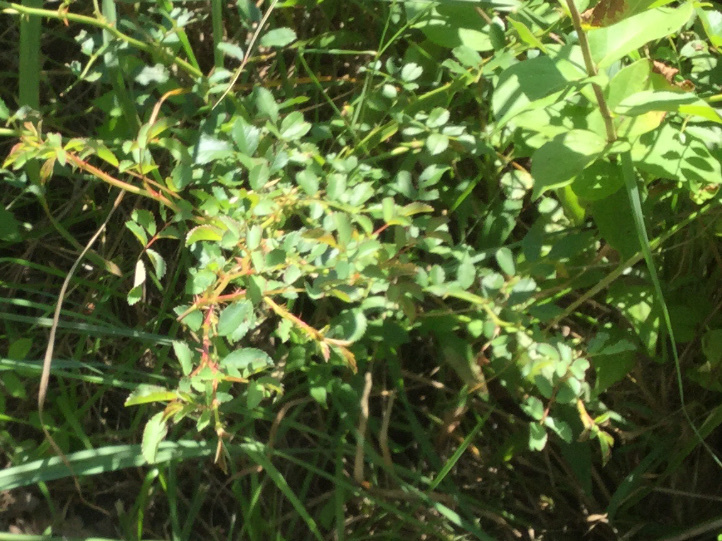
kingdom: Plantae
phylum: Tracheophyta
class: Magnoliopsida
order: Rosales
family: Rosaceae
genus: Rosa
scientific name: Rosa multiflora
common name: Multiflora rose
